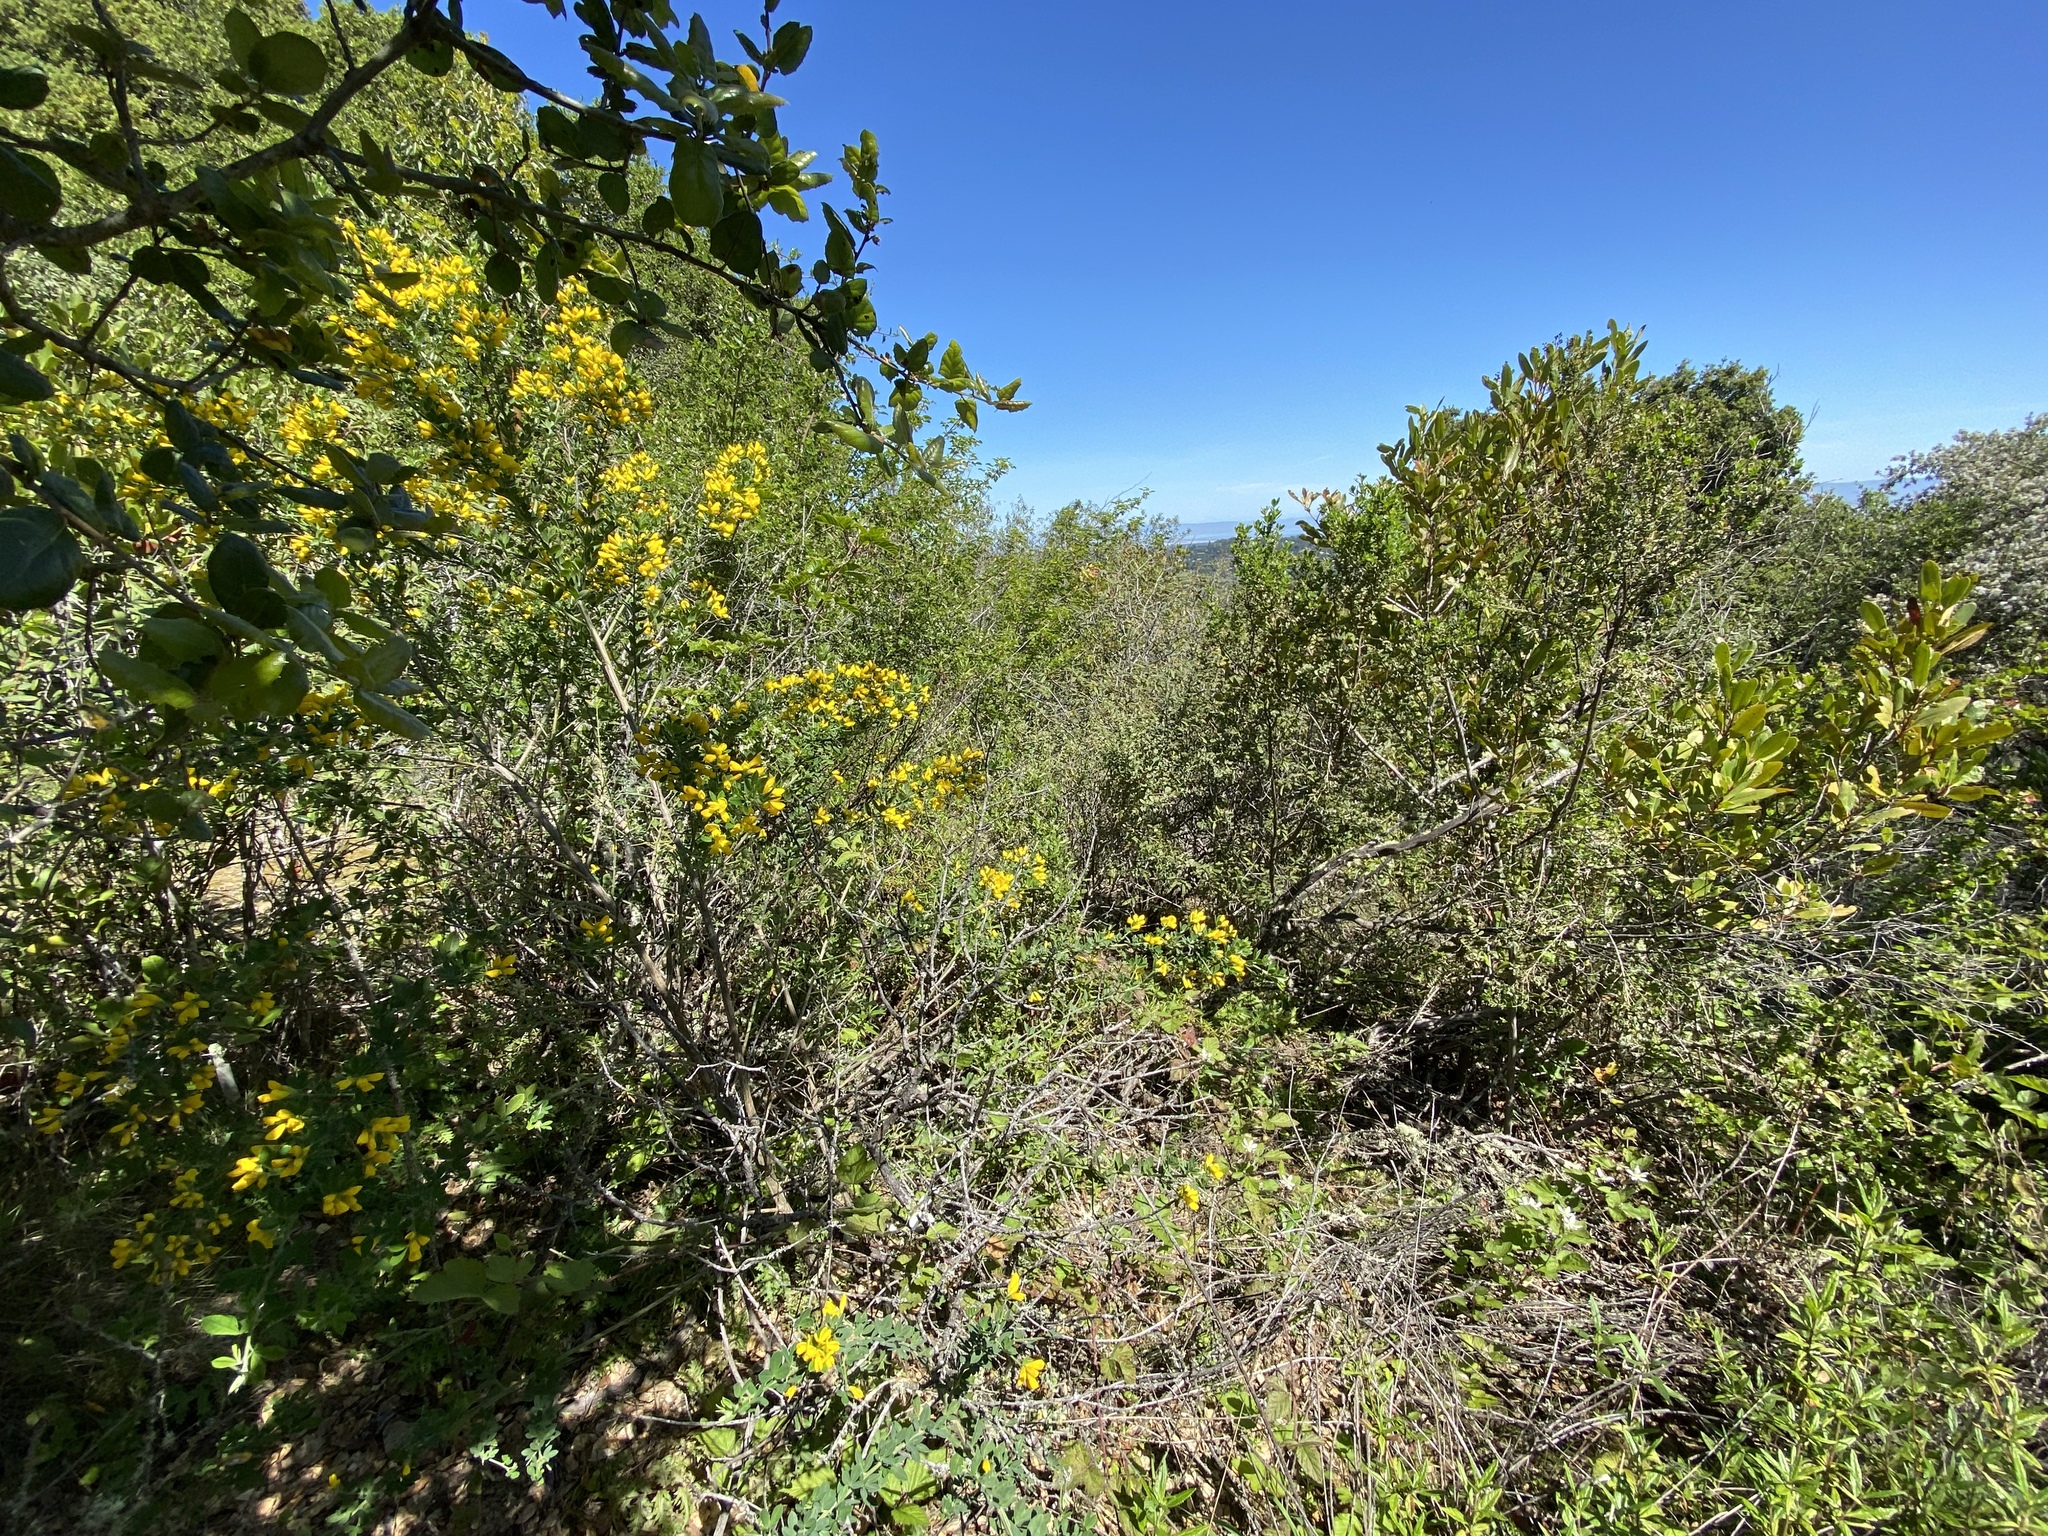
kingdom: Plantae
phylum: Tracheophyta
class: Magnoliopsida
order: Fabales
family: Fabaceae
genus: Genista
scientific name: Genista monspessulana
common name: Montpellier broom
